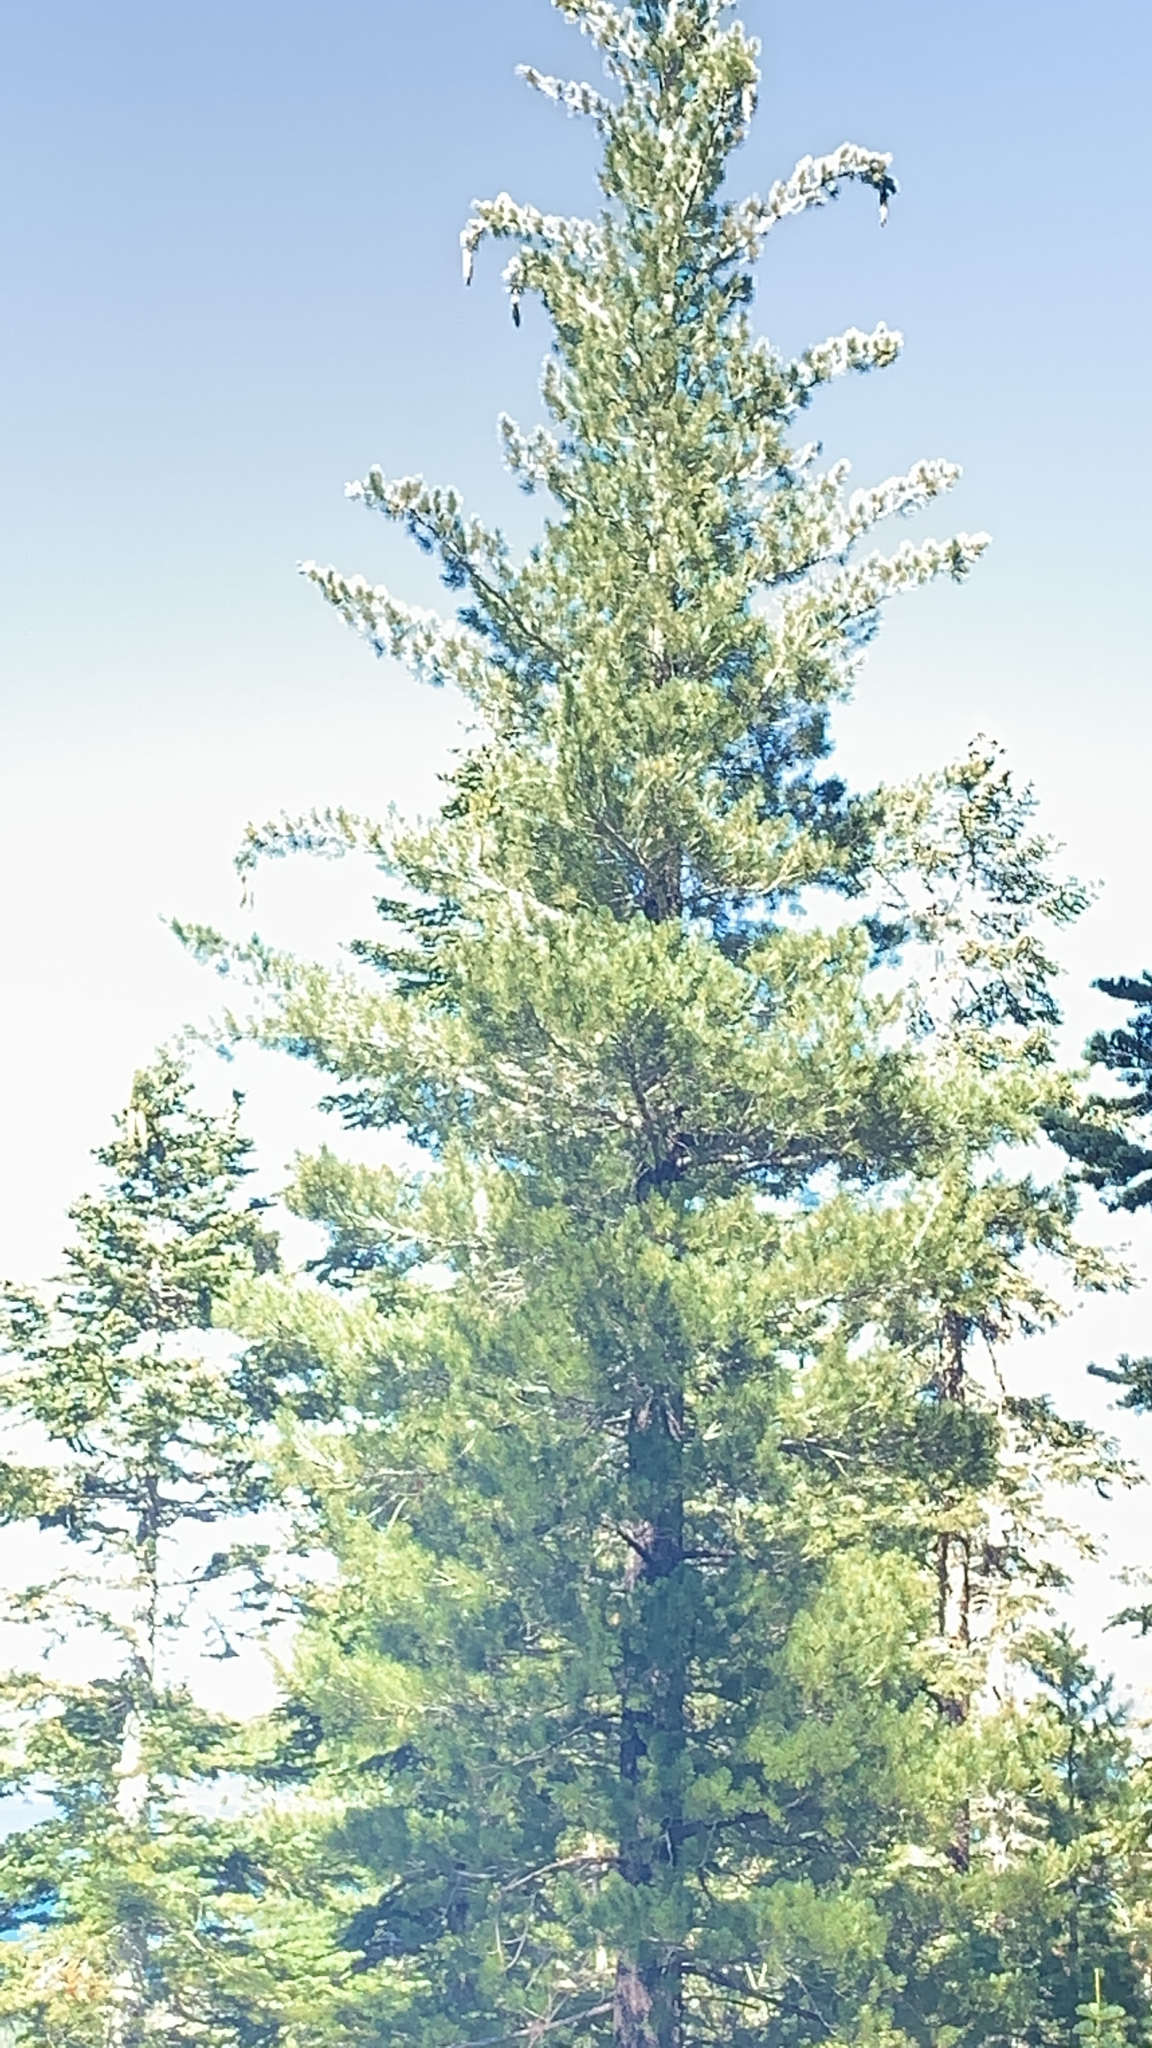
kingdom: Plantae
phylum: Tracheophyta
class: Pinopsida
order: Pinales
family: Pinaceae
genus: Pinus
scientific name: Pinus lambertiana
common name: Sugar pine
